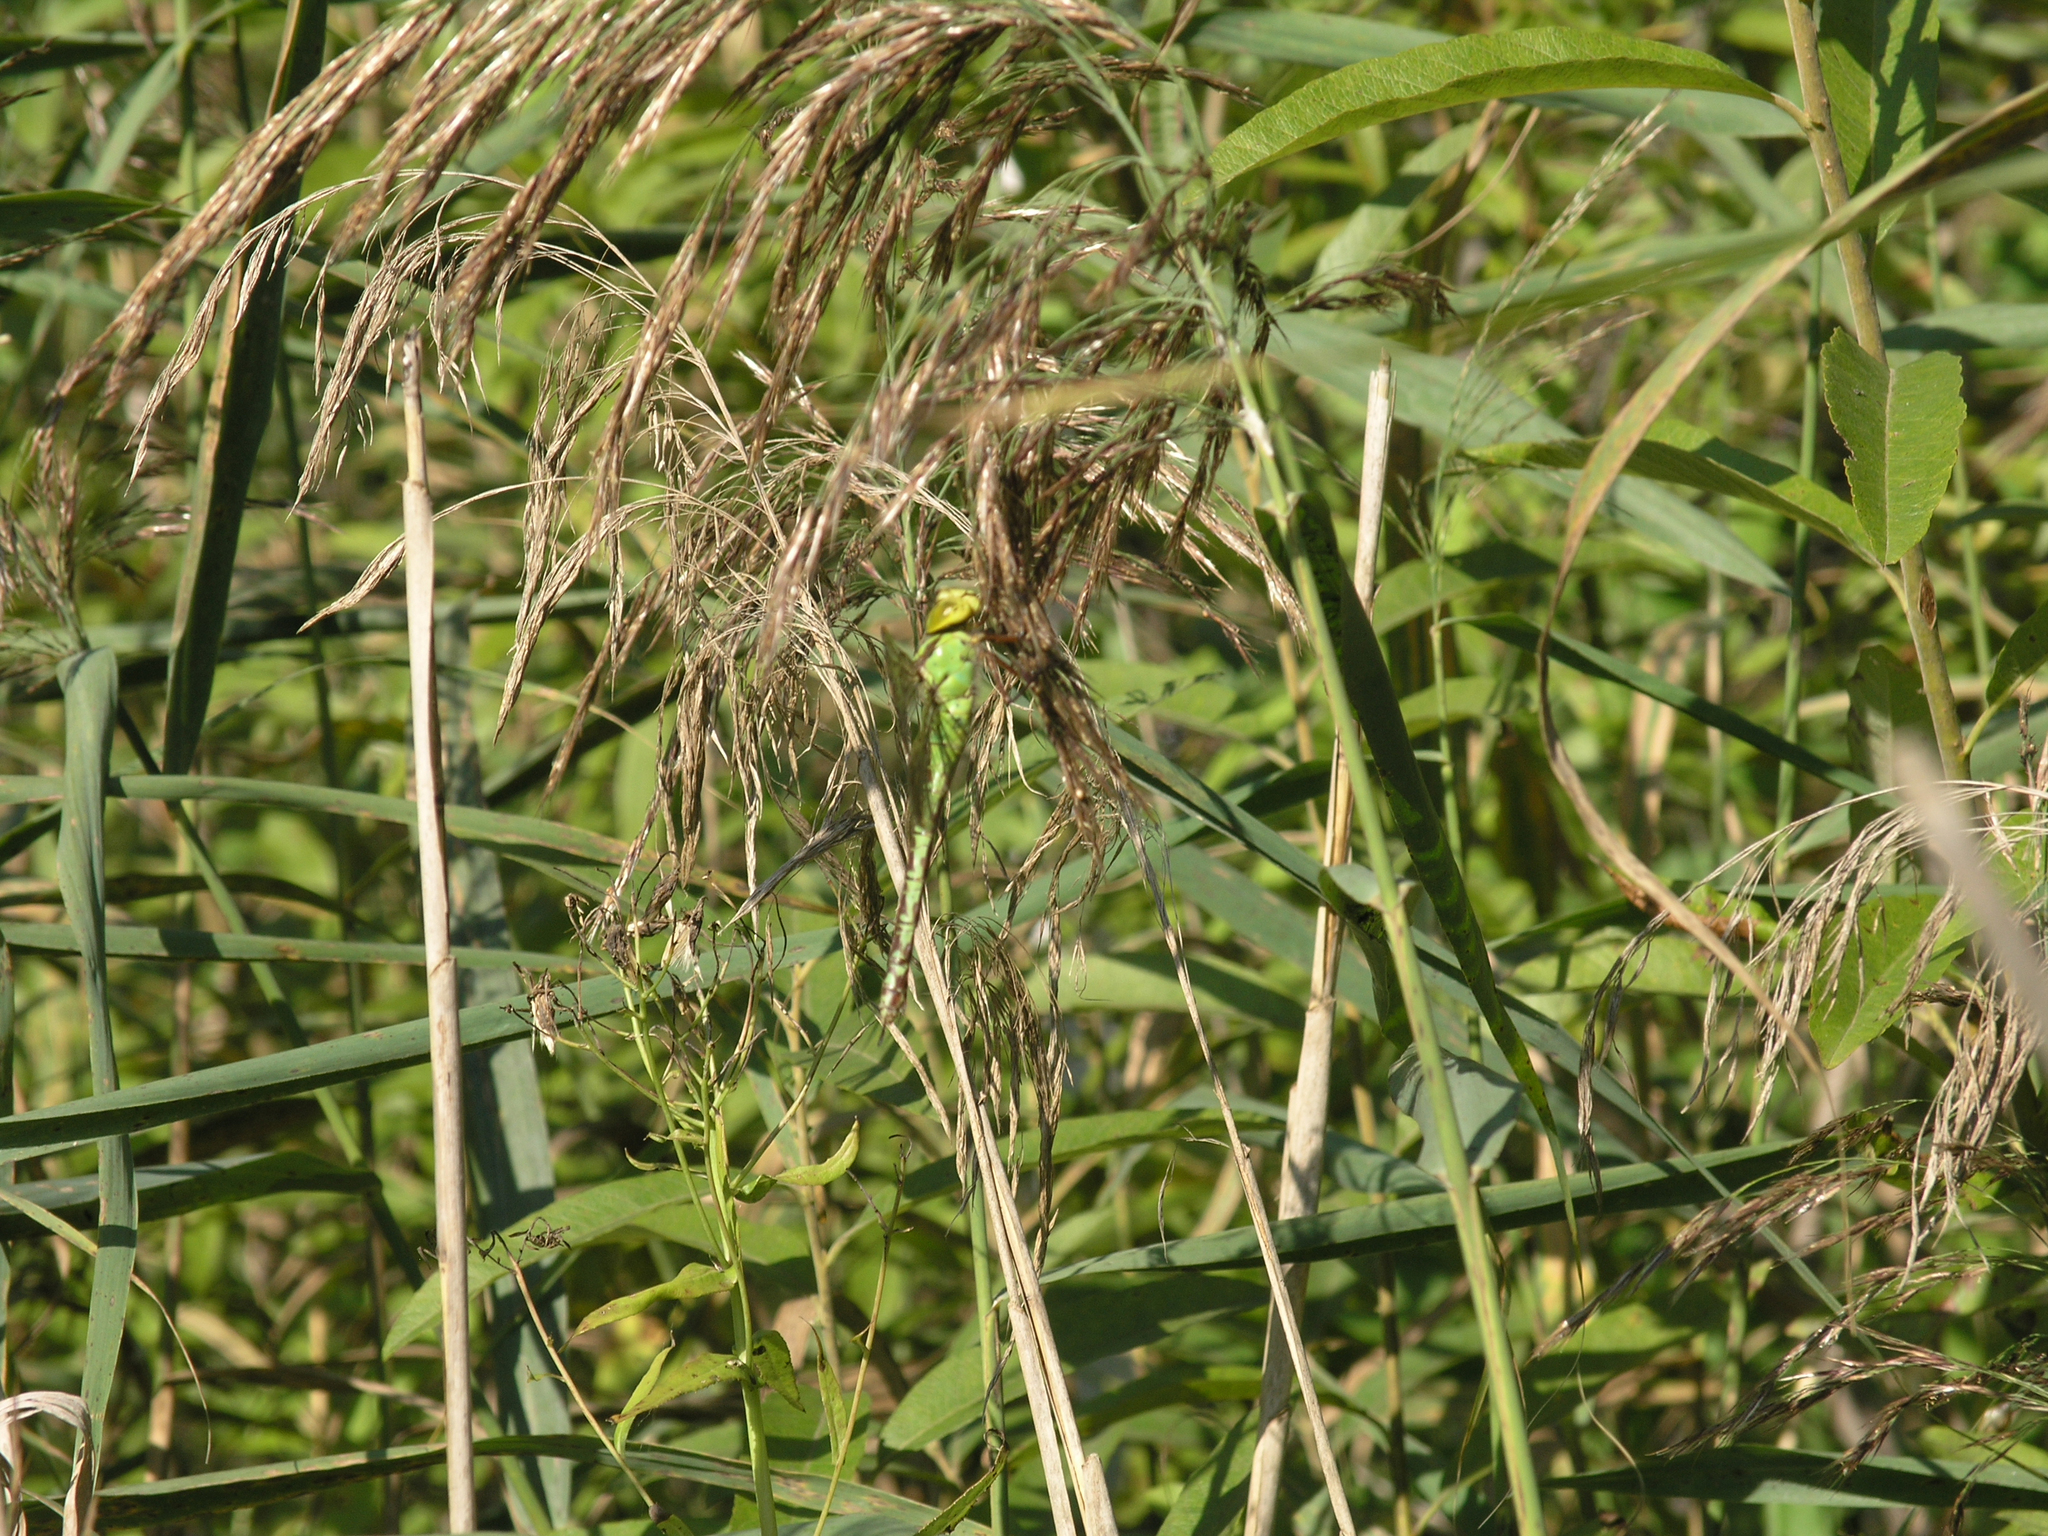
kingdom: Plantae
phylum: Tracheophyta
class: Liliopsida
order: Poales
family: Poaceae
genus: Phragmites
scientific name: Phragmites australis
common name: Common reed
